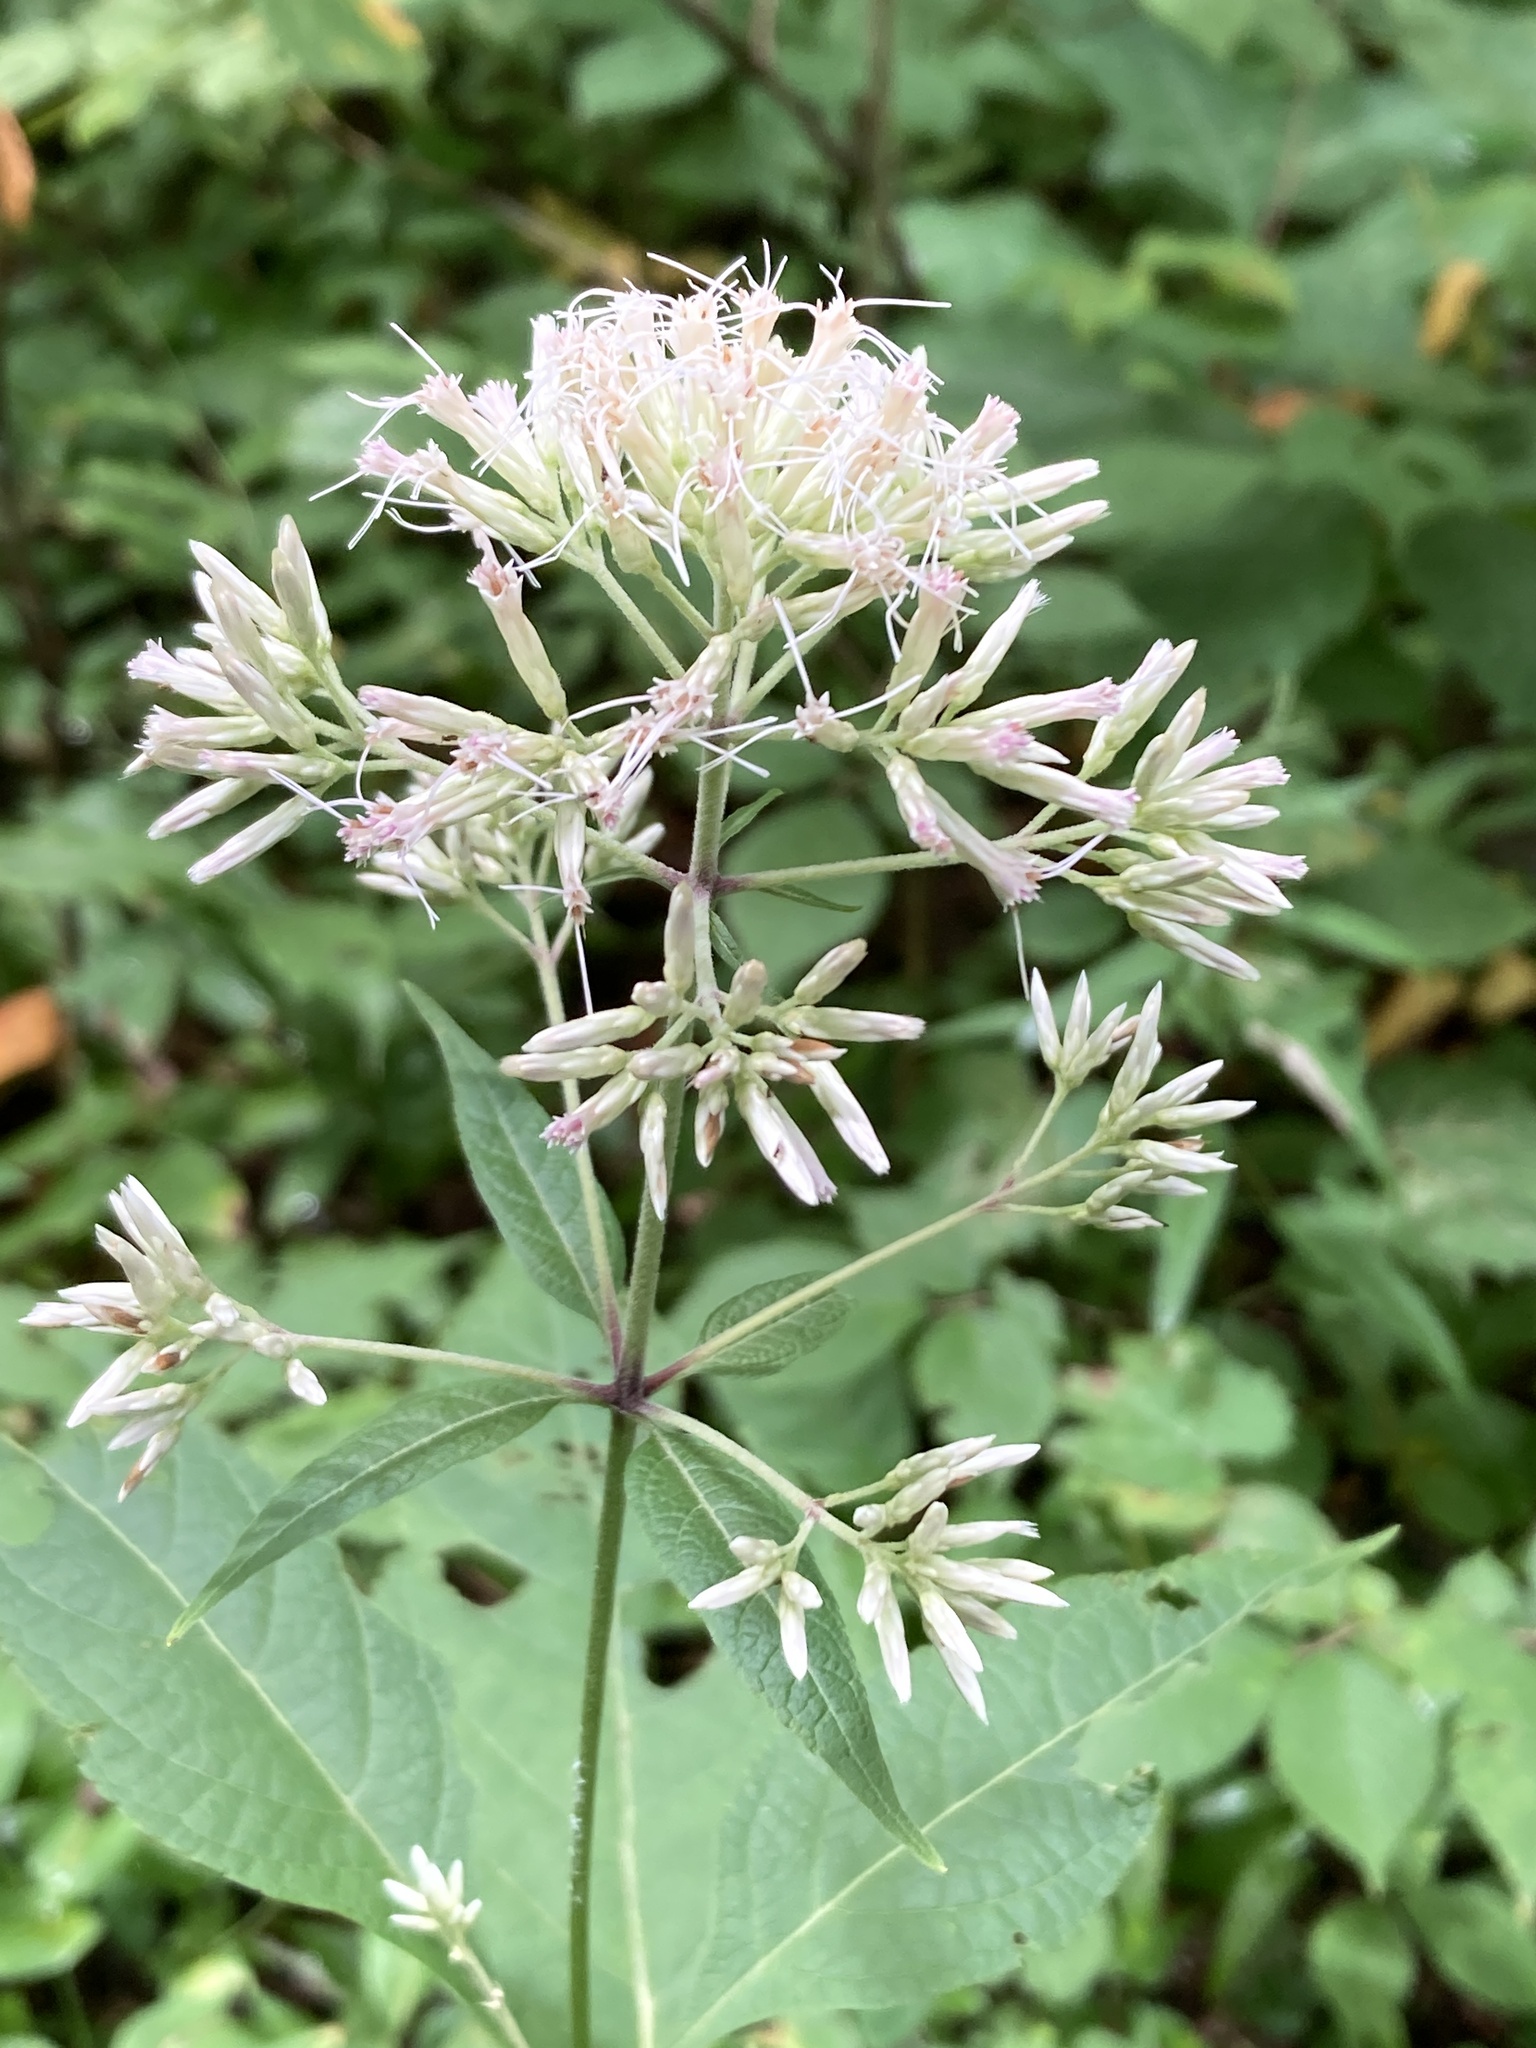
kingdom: Plantae
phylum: Tracheophyta
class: Magnoliopsida
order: Asterales
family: Asteraceae
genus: Eutrochium
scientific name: Eutrochium purpureum
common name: Gravelroot
